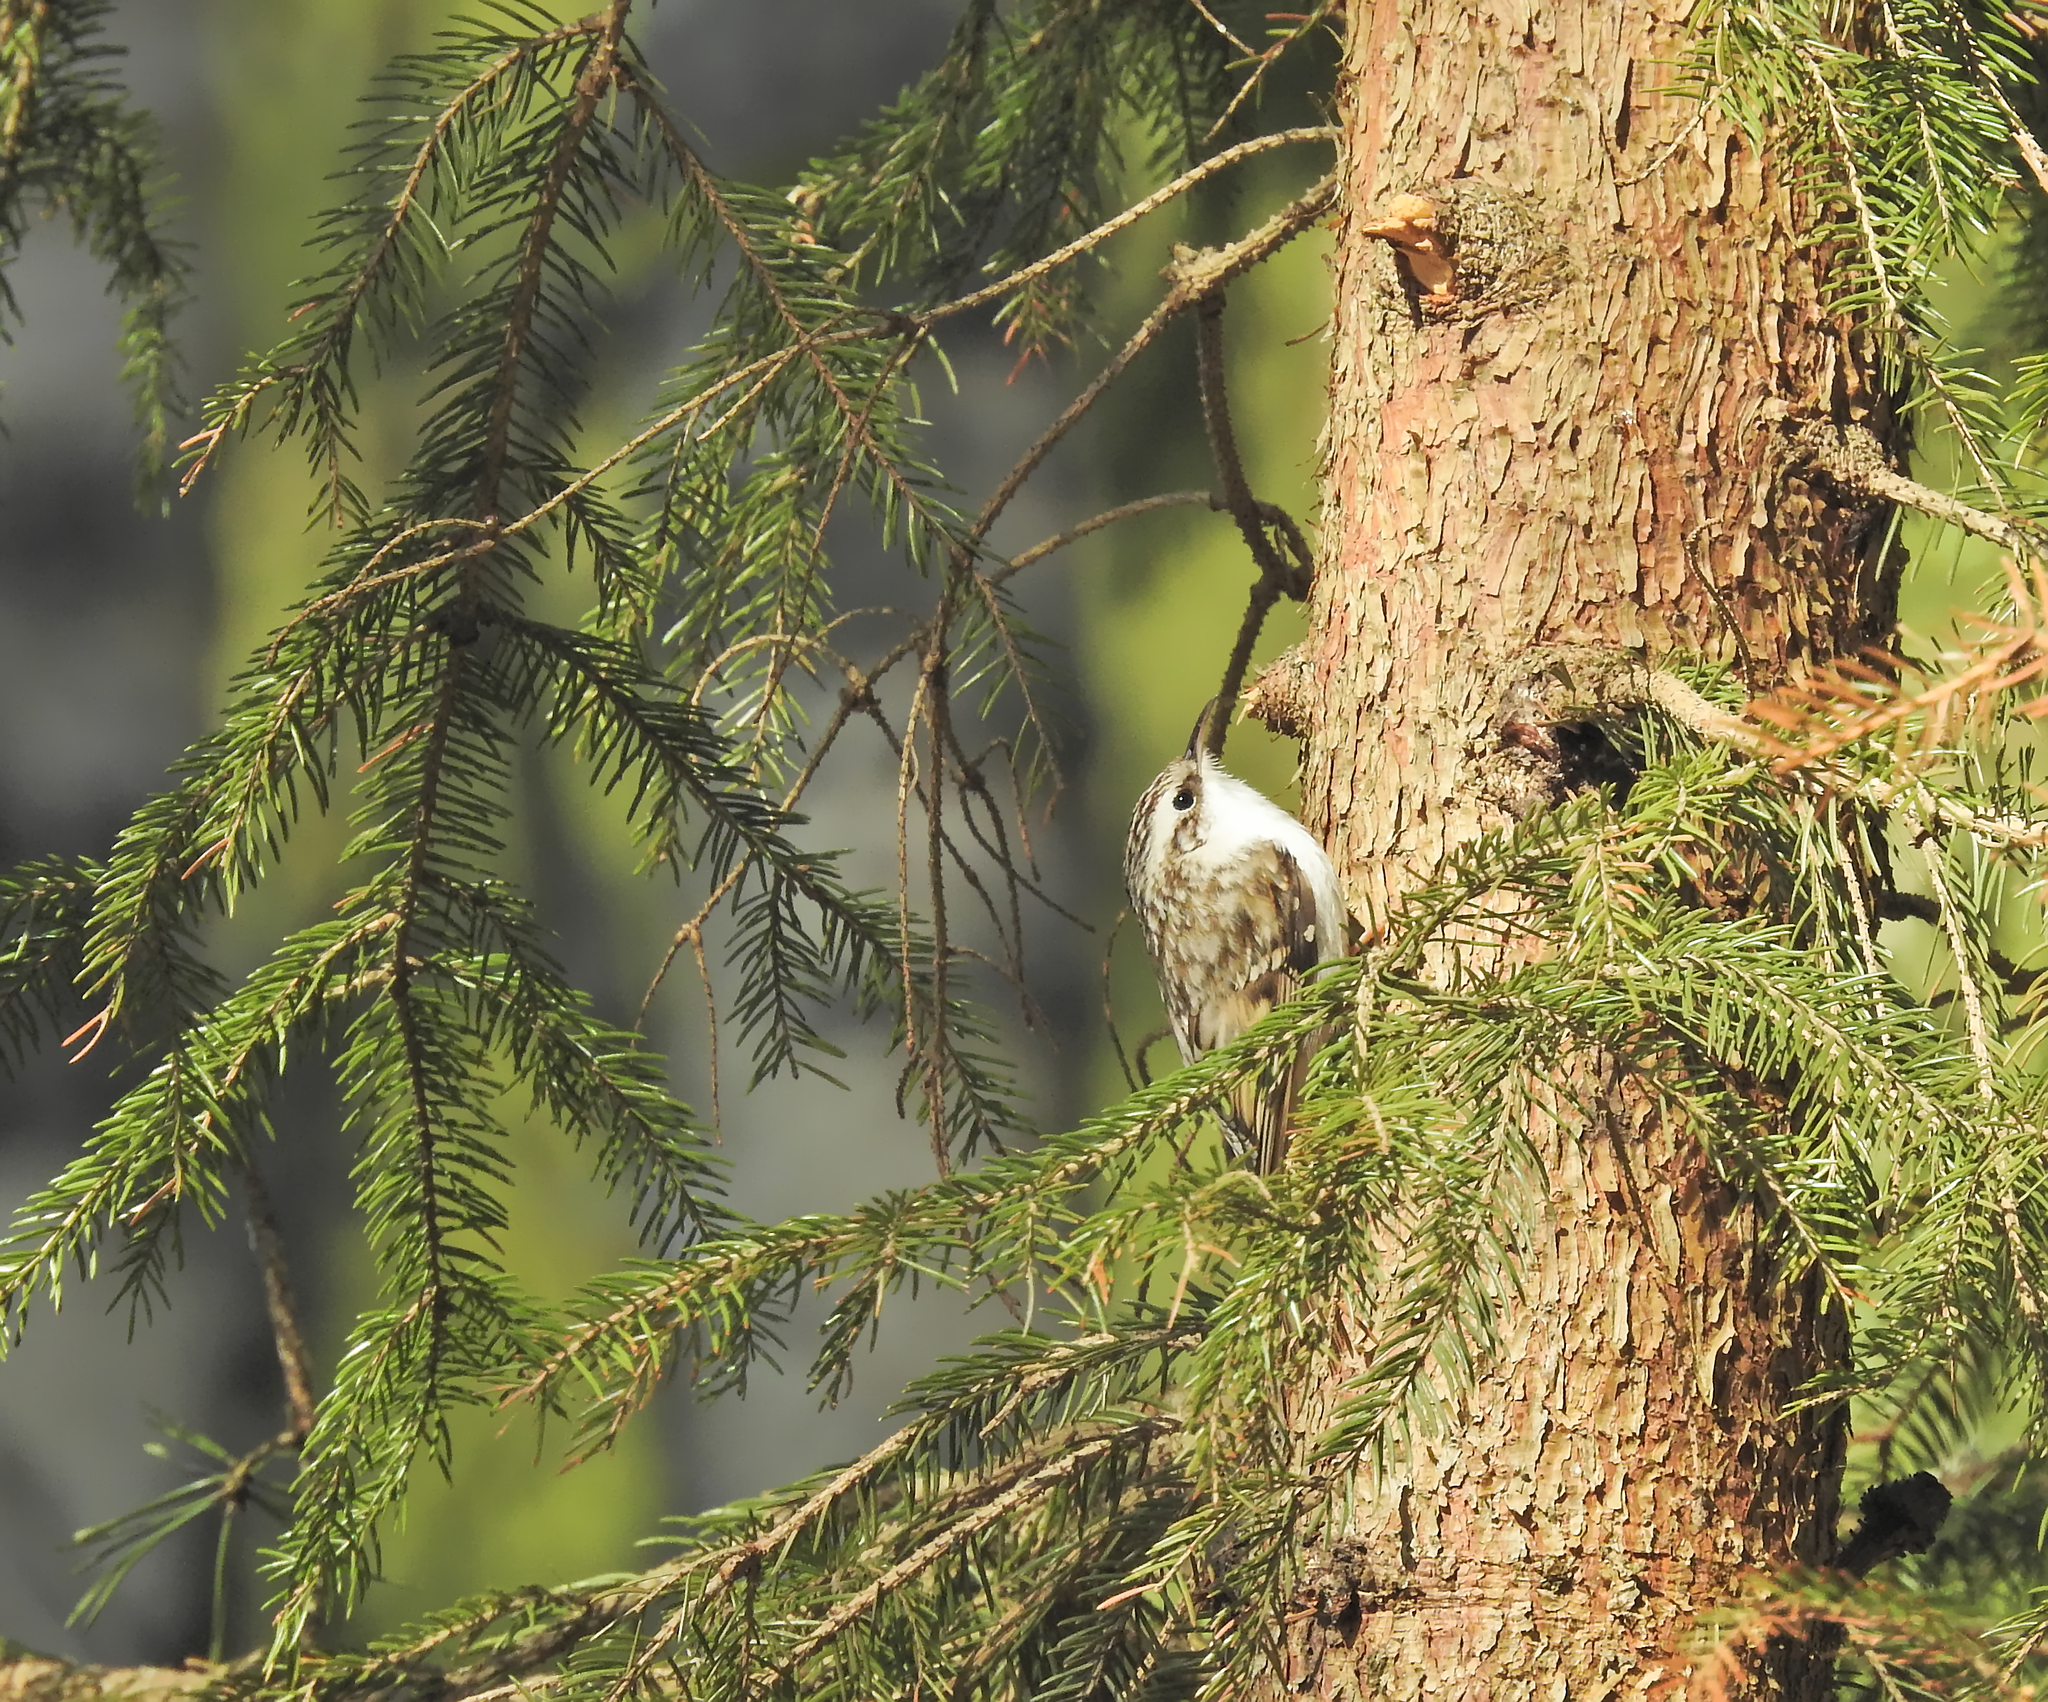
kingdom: Animalia
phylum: Chordata
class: Aves
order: Passeriformes
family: Certhiidae
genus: Certhia
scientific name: Certhia familiaris
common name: Eurasian treecreeper
